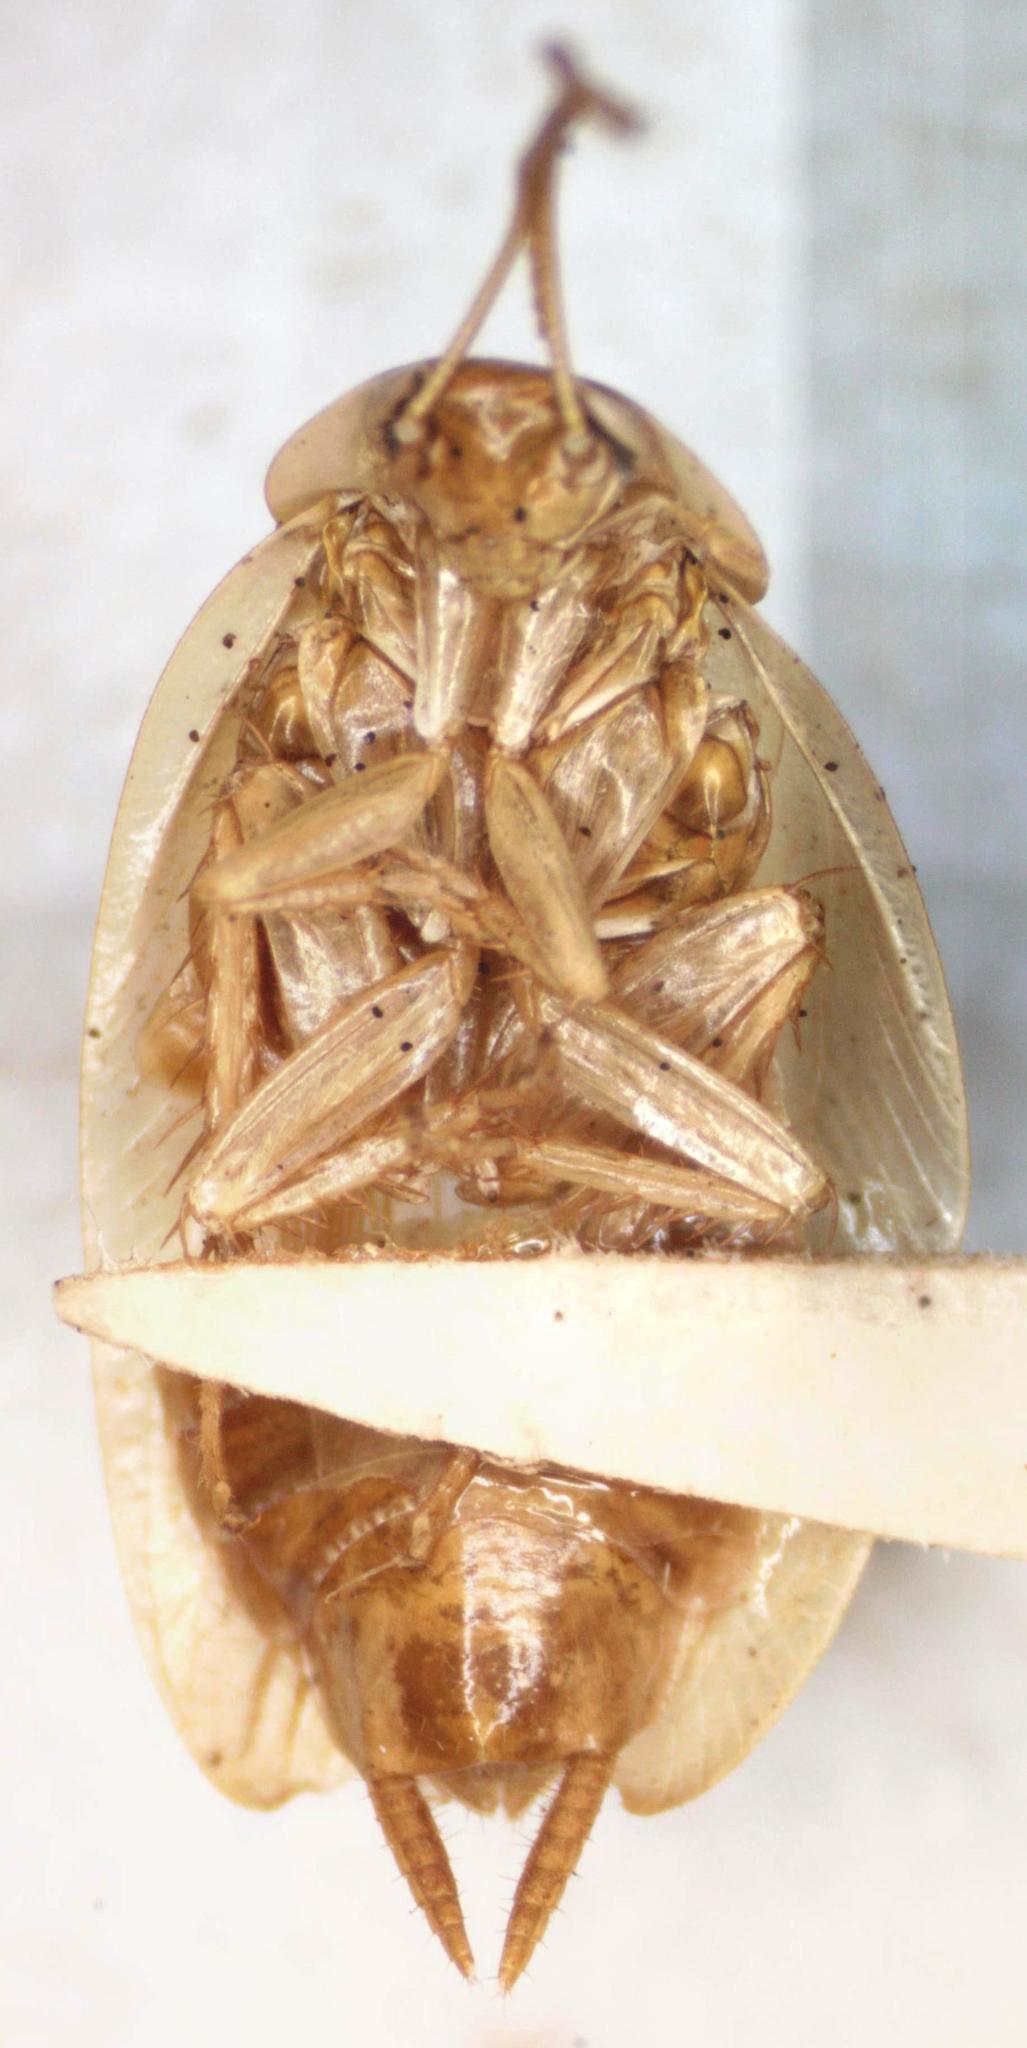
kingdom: Animalia
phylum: Arthropoda
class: Insecta
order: Blattodea
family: Ectobiidae
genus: Riatia
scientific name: Riatia fulgida
